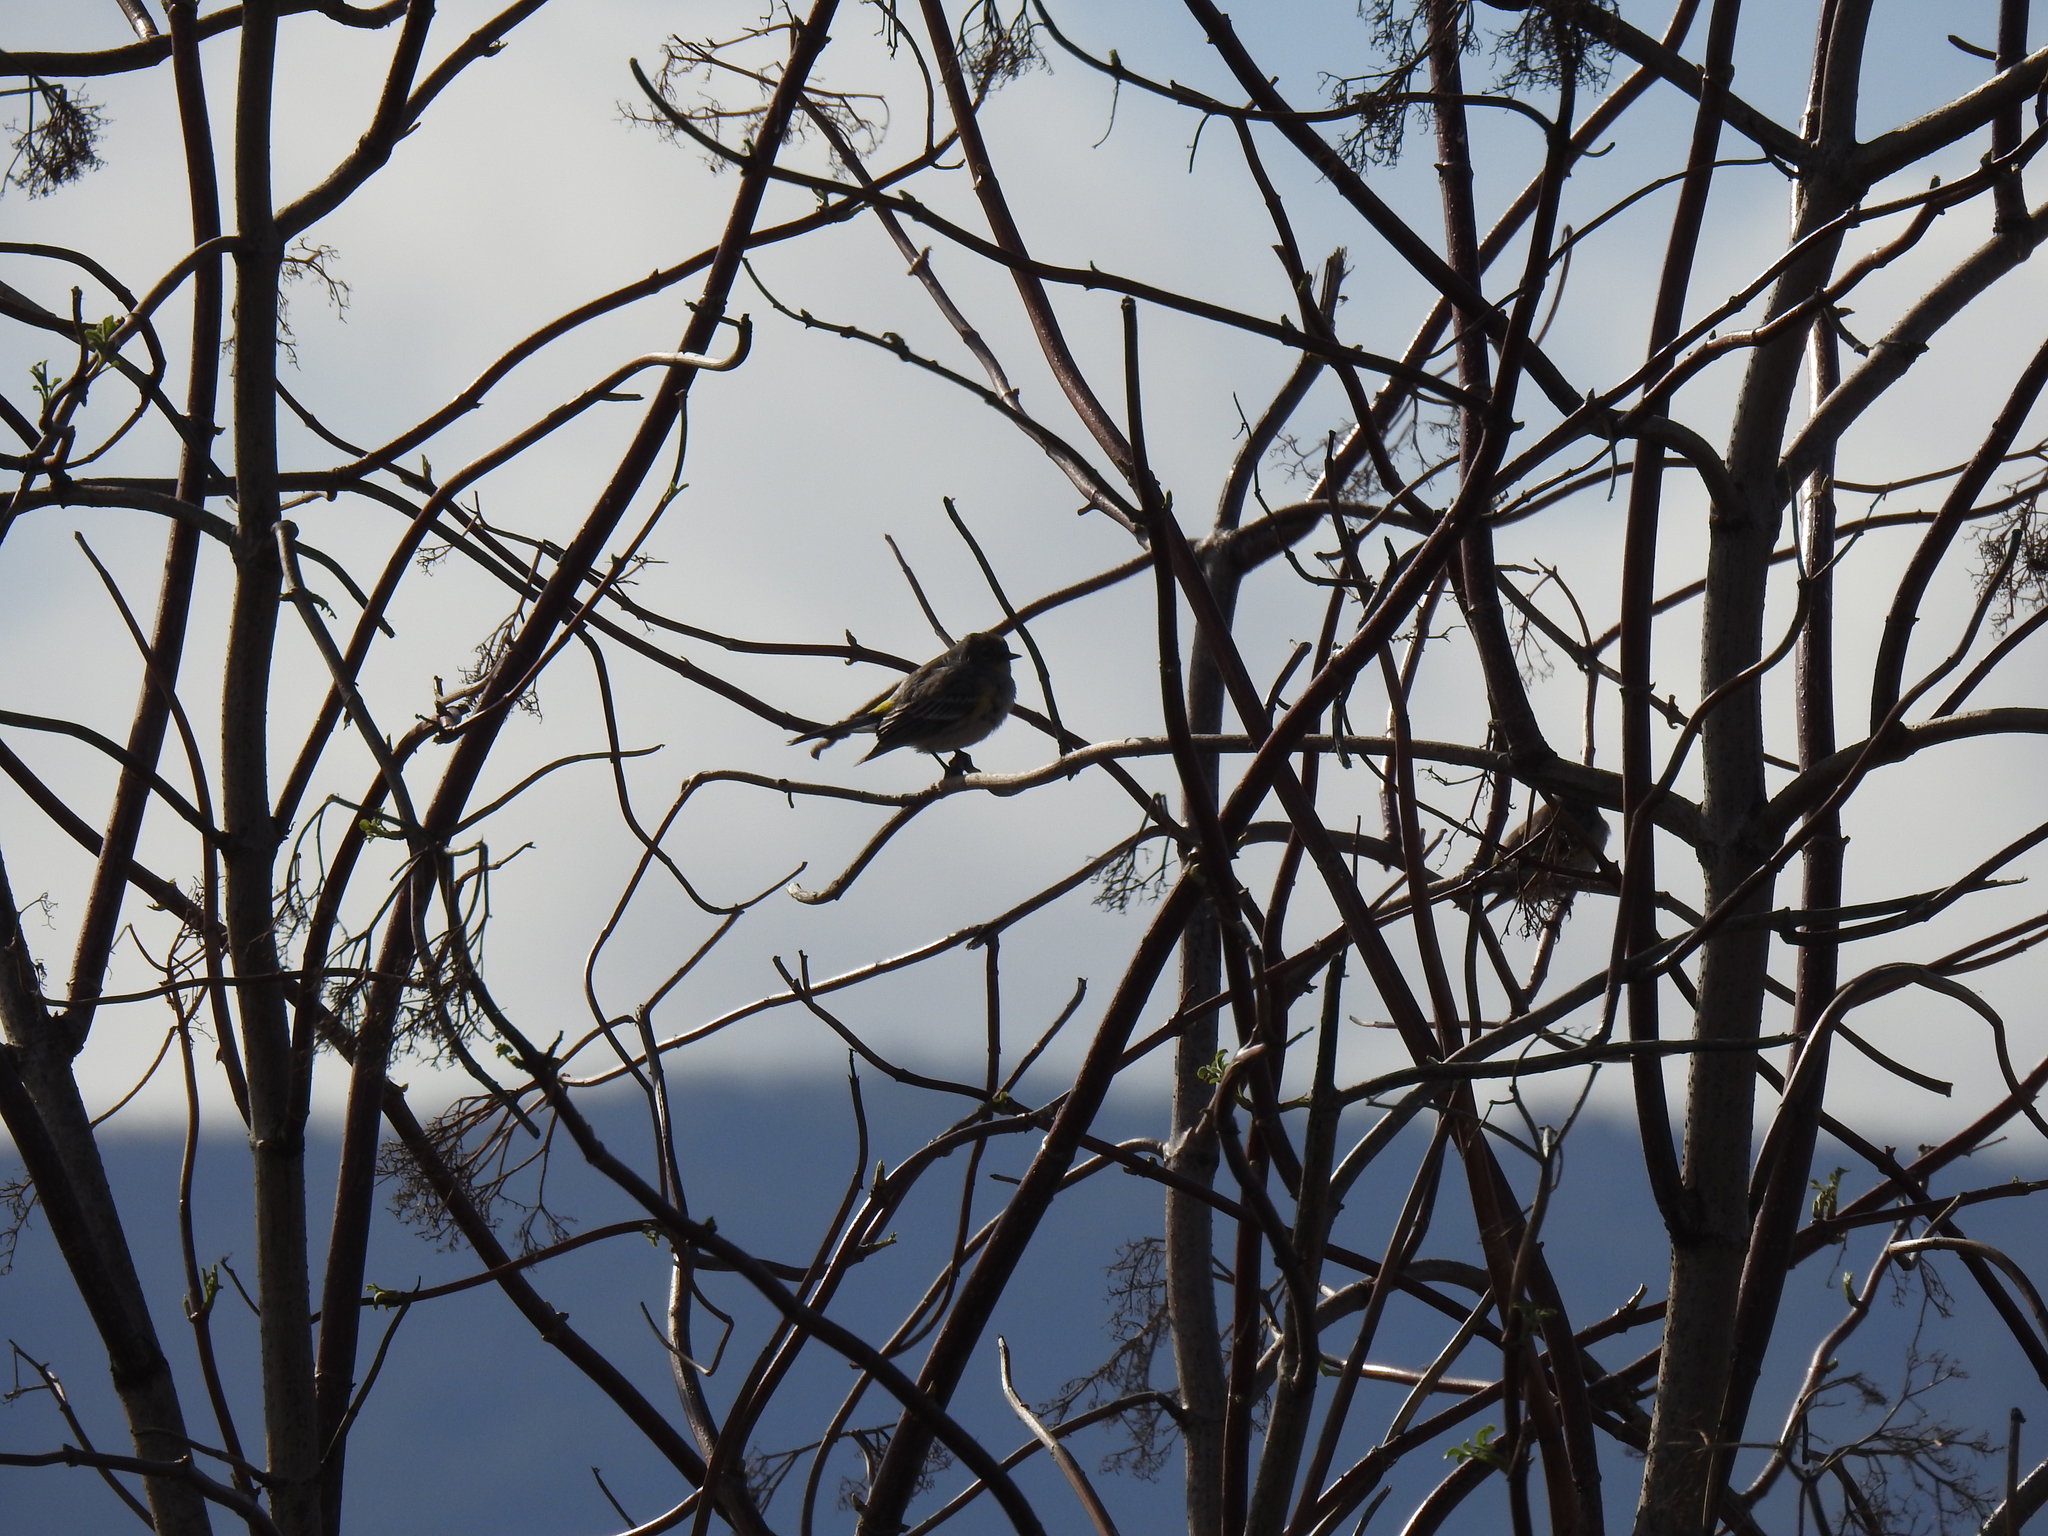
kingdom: Animalia
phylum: Chordata
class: Aves
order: Passeriformes
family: Parulidae
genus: Setophaga
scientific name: Setophaga coronata
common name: Myrtle warbler
